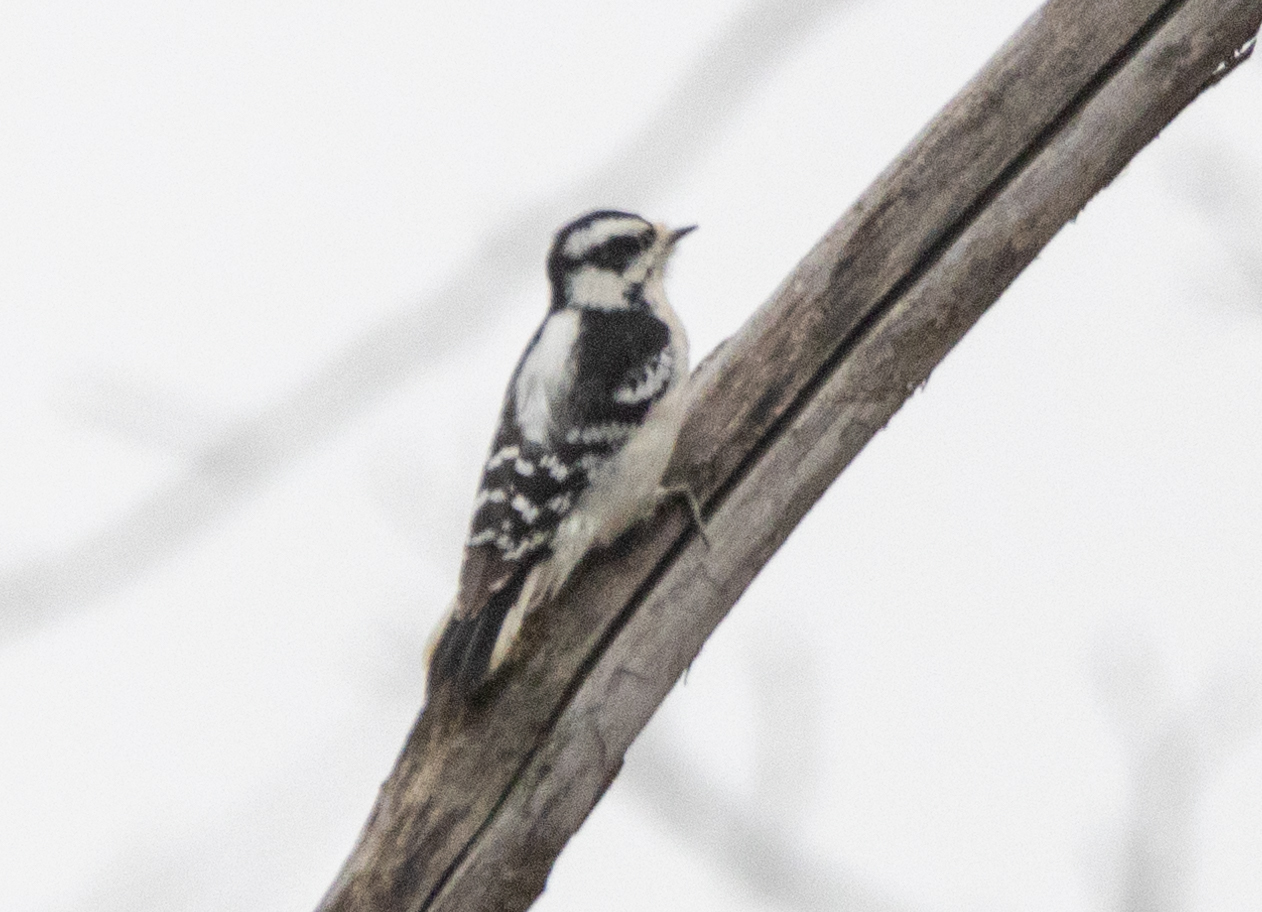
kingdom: Animalia
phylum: Chordata
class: Aves
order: Piciformes
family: Picidae
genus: Dryobates
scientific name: Dryobates pubescens
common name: Downy woodpecker
